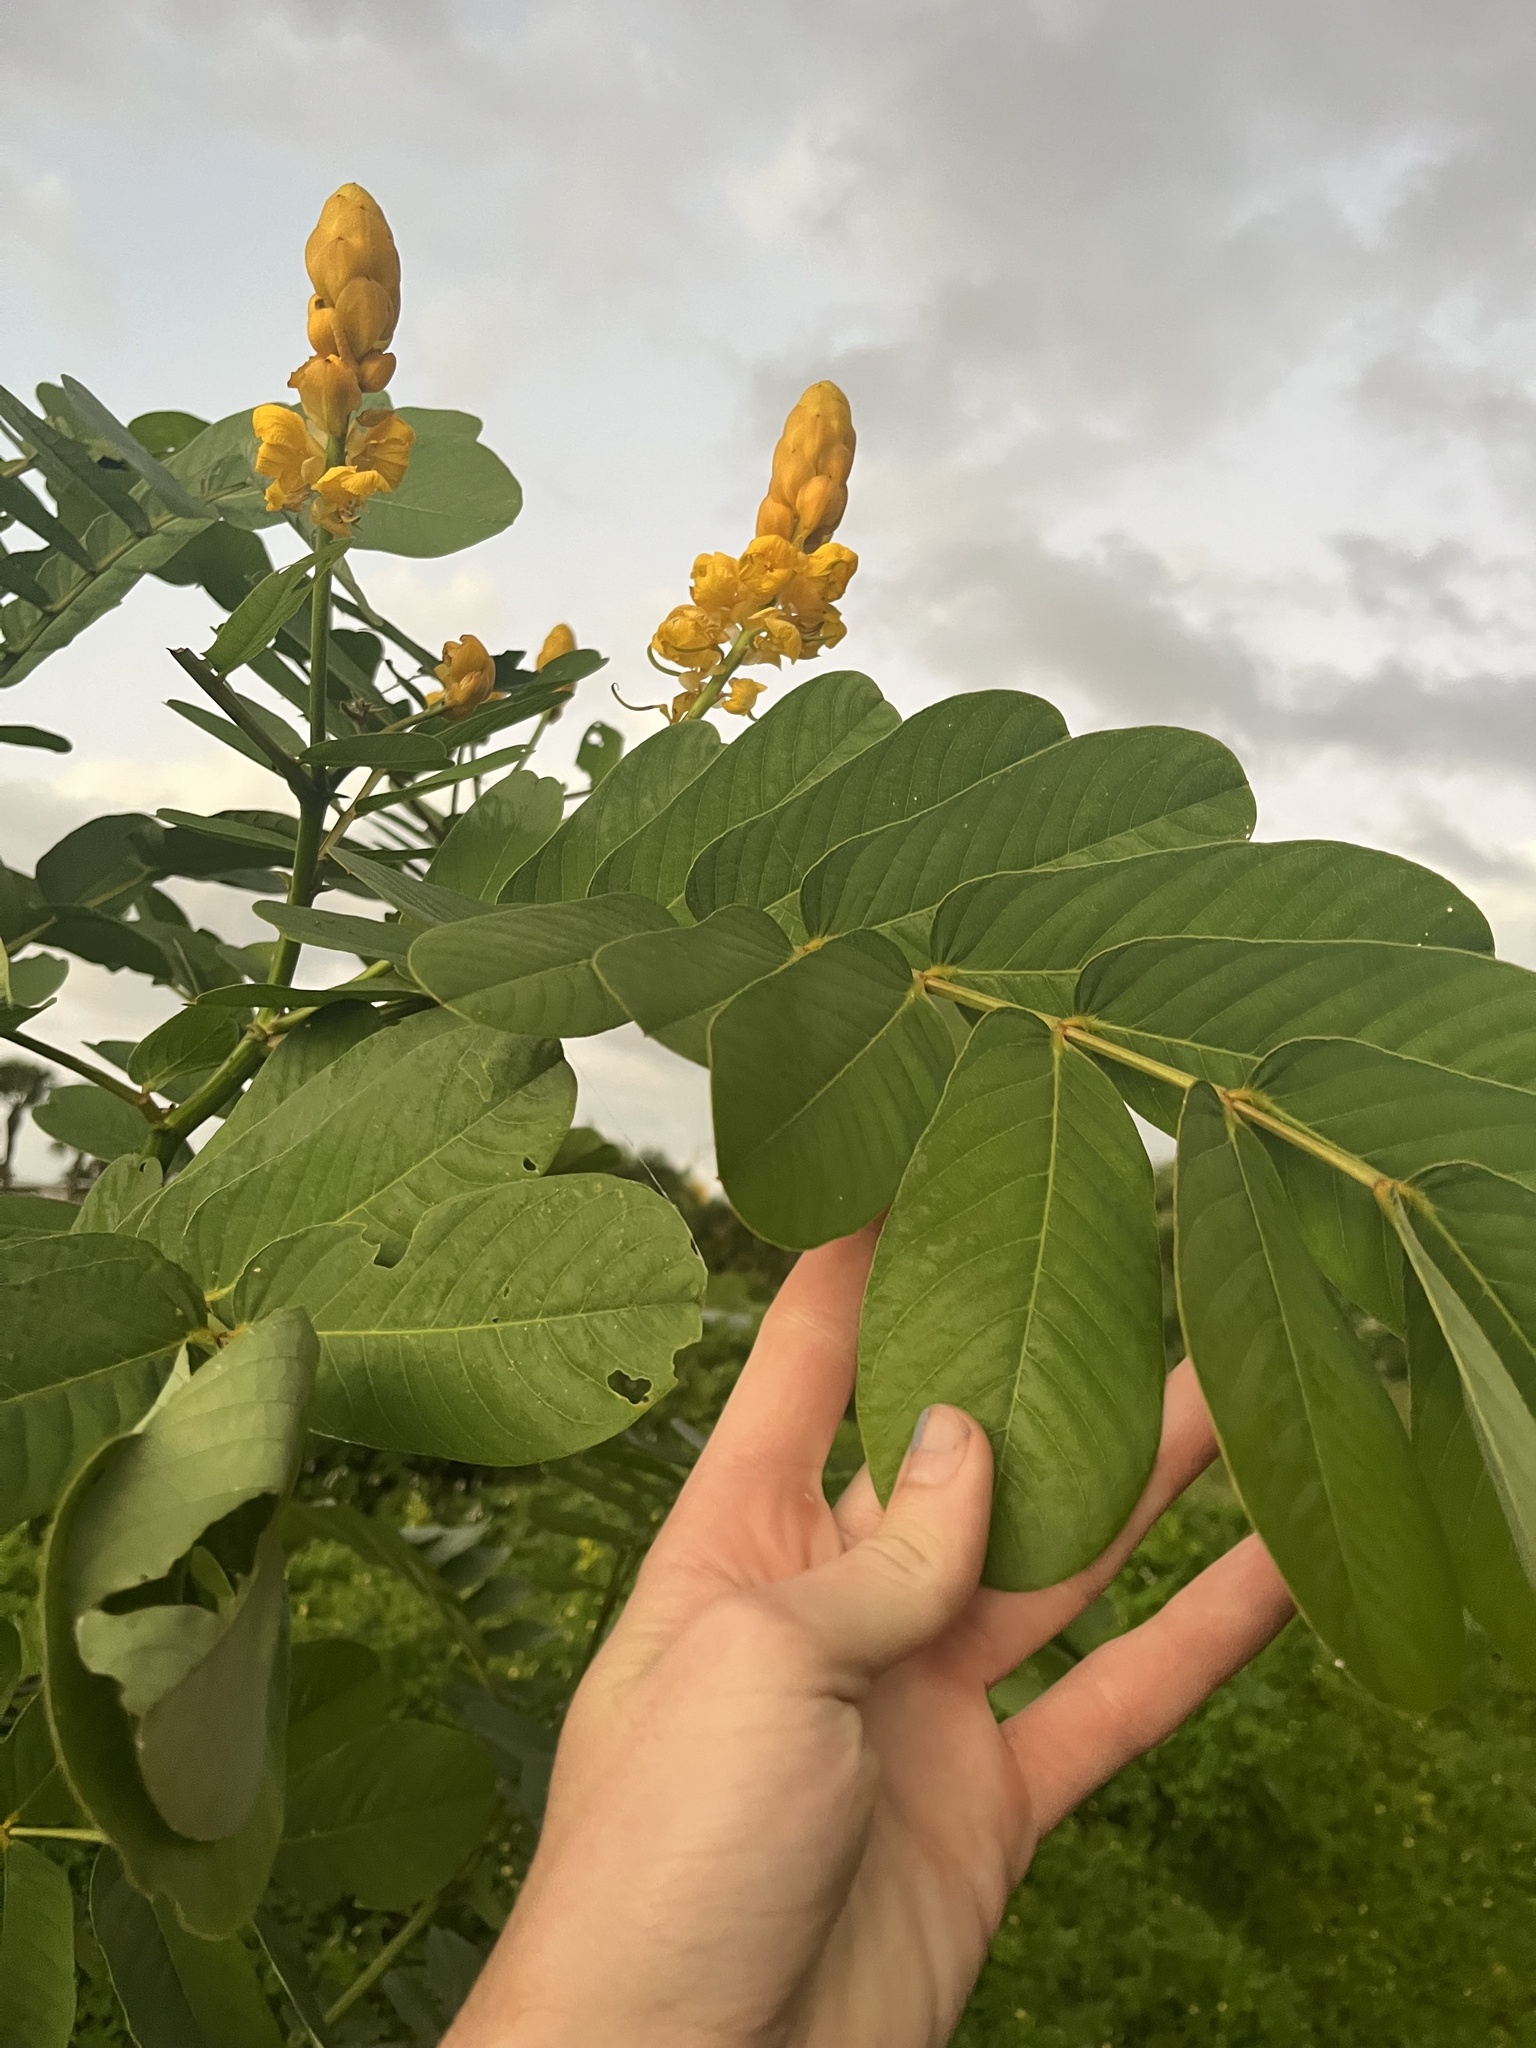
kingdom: Plantae
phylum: Tracheophyta
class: Magnoliopsida
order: Fabales
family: Fabaceae
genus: Senna
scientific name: Senna alata
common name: Emperor's candlesticks
